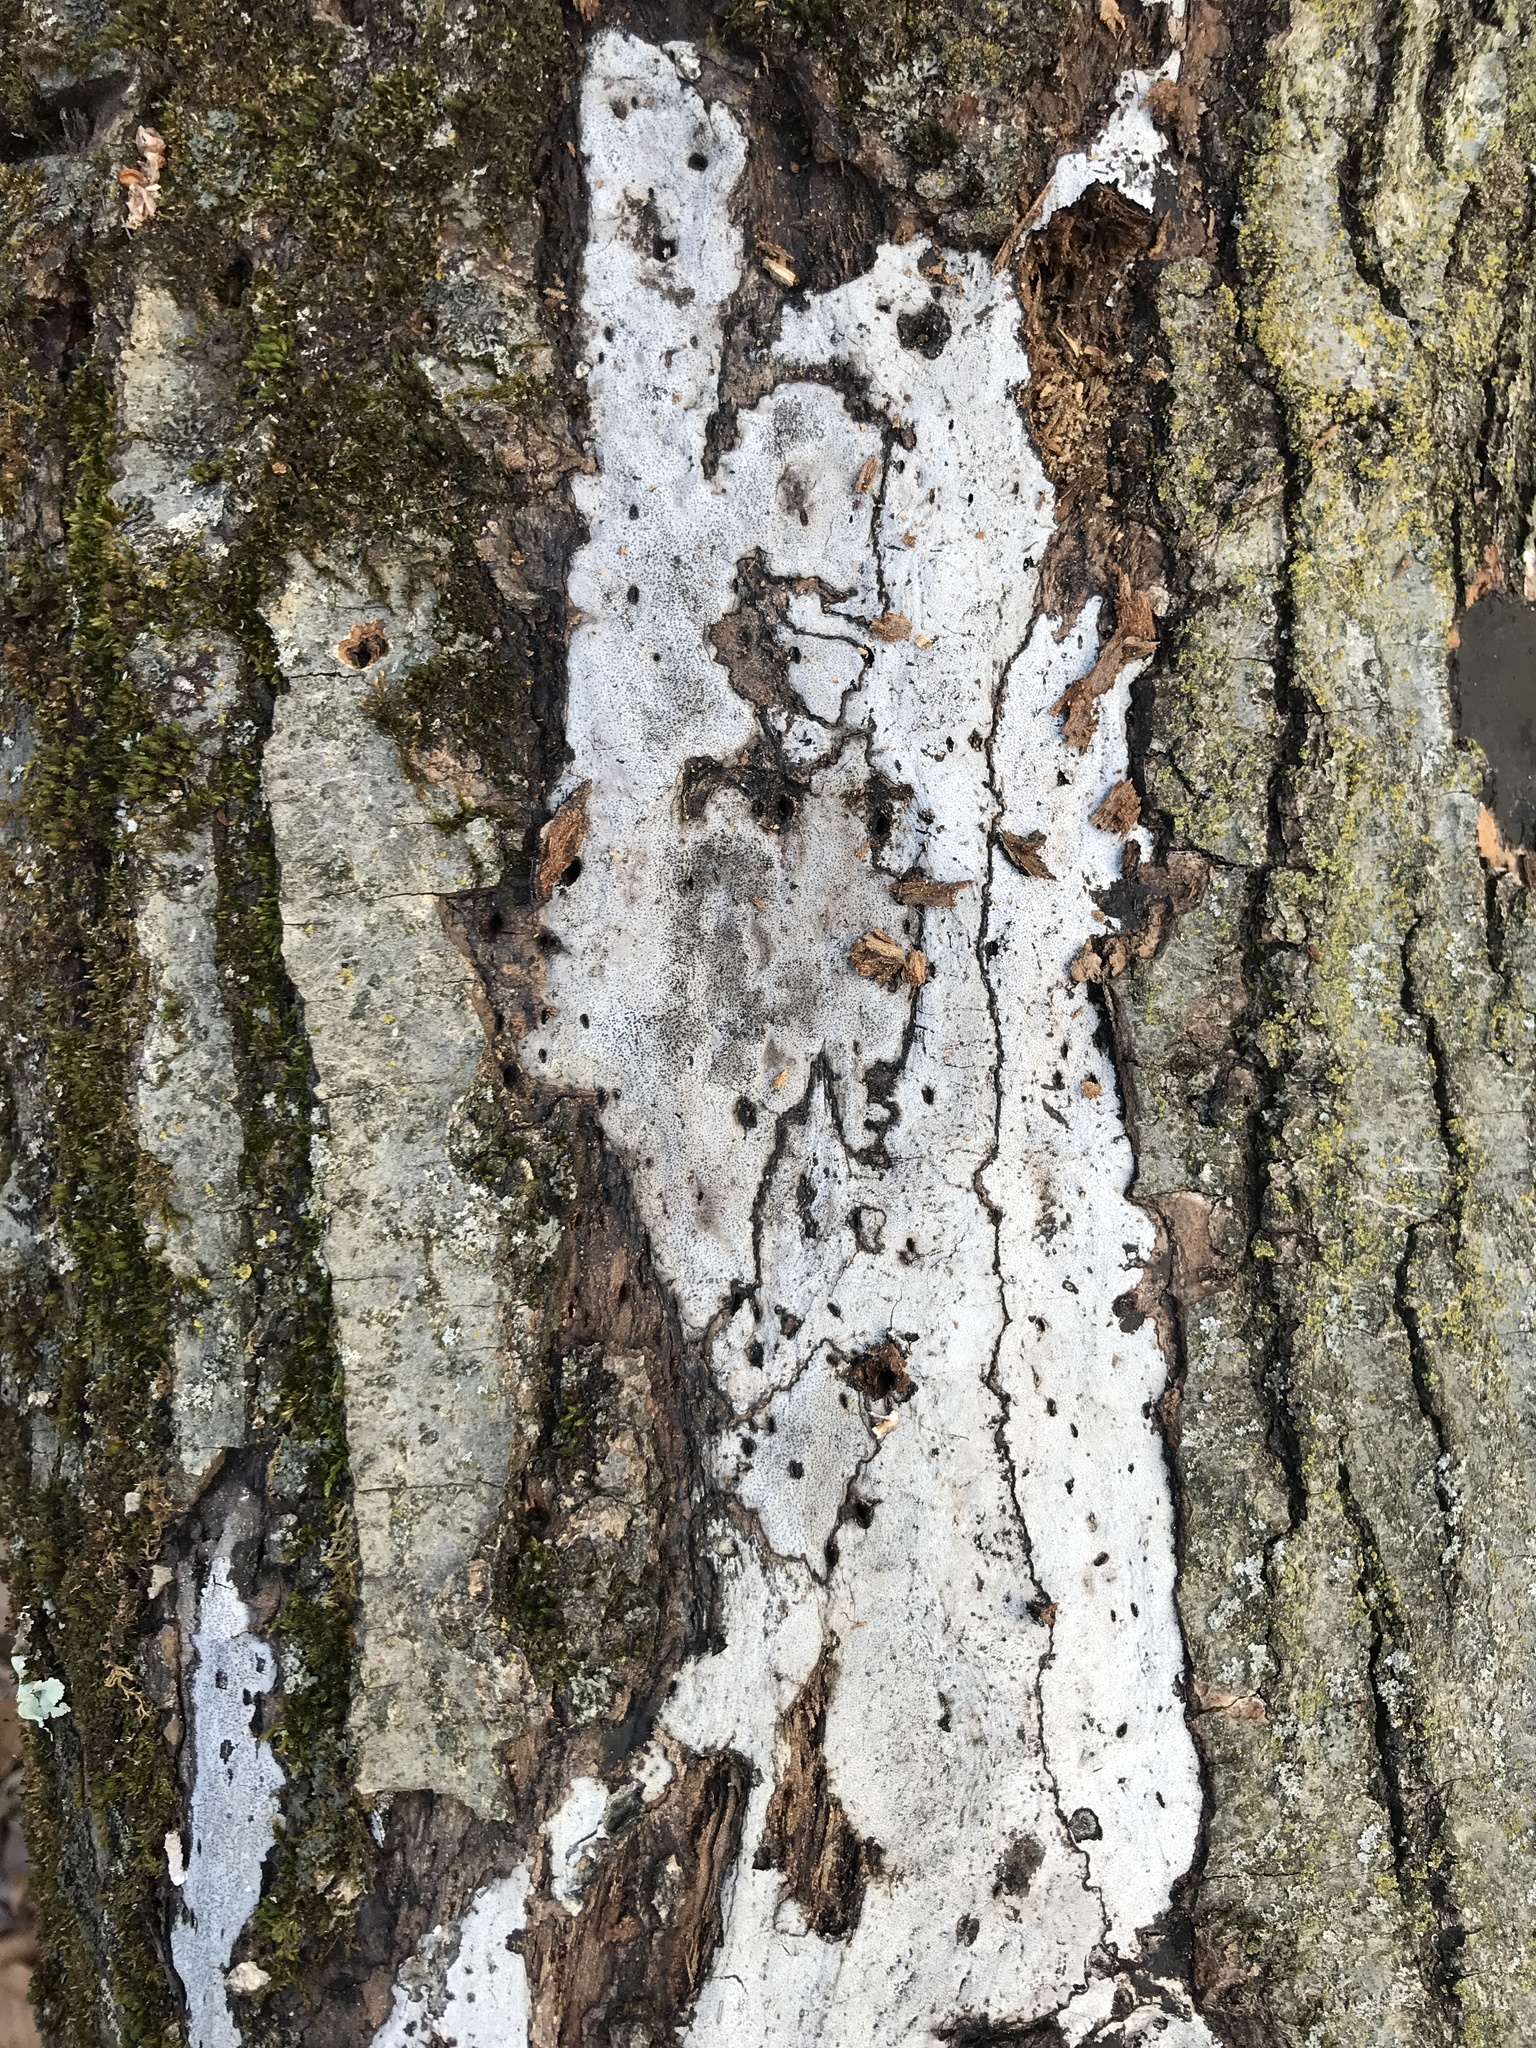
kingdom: Fungi
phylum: Ascomycota
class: Sordariomycetes
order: Xylariales
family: Graphostromataceae
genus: Biscogniauxia
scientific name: Biscogniauxia atropunctata
